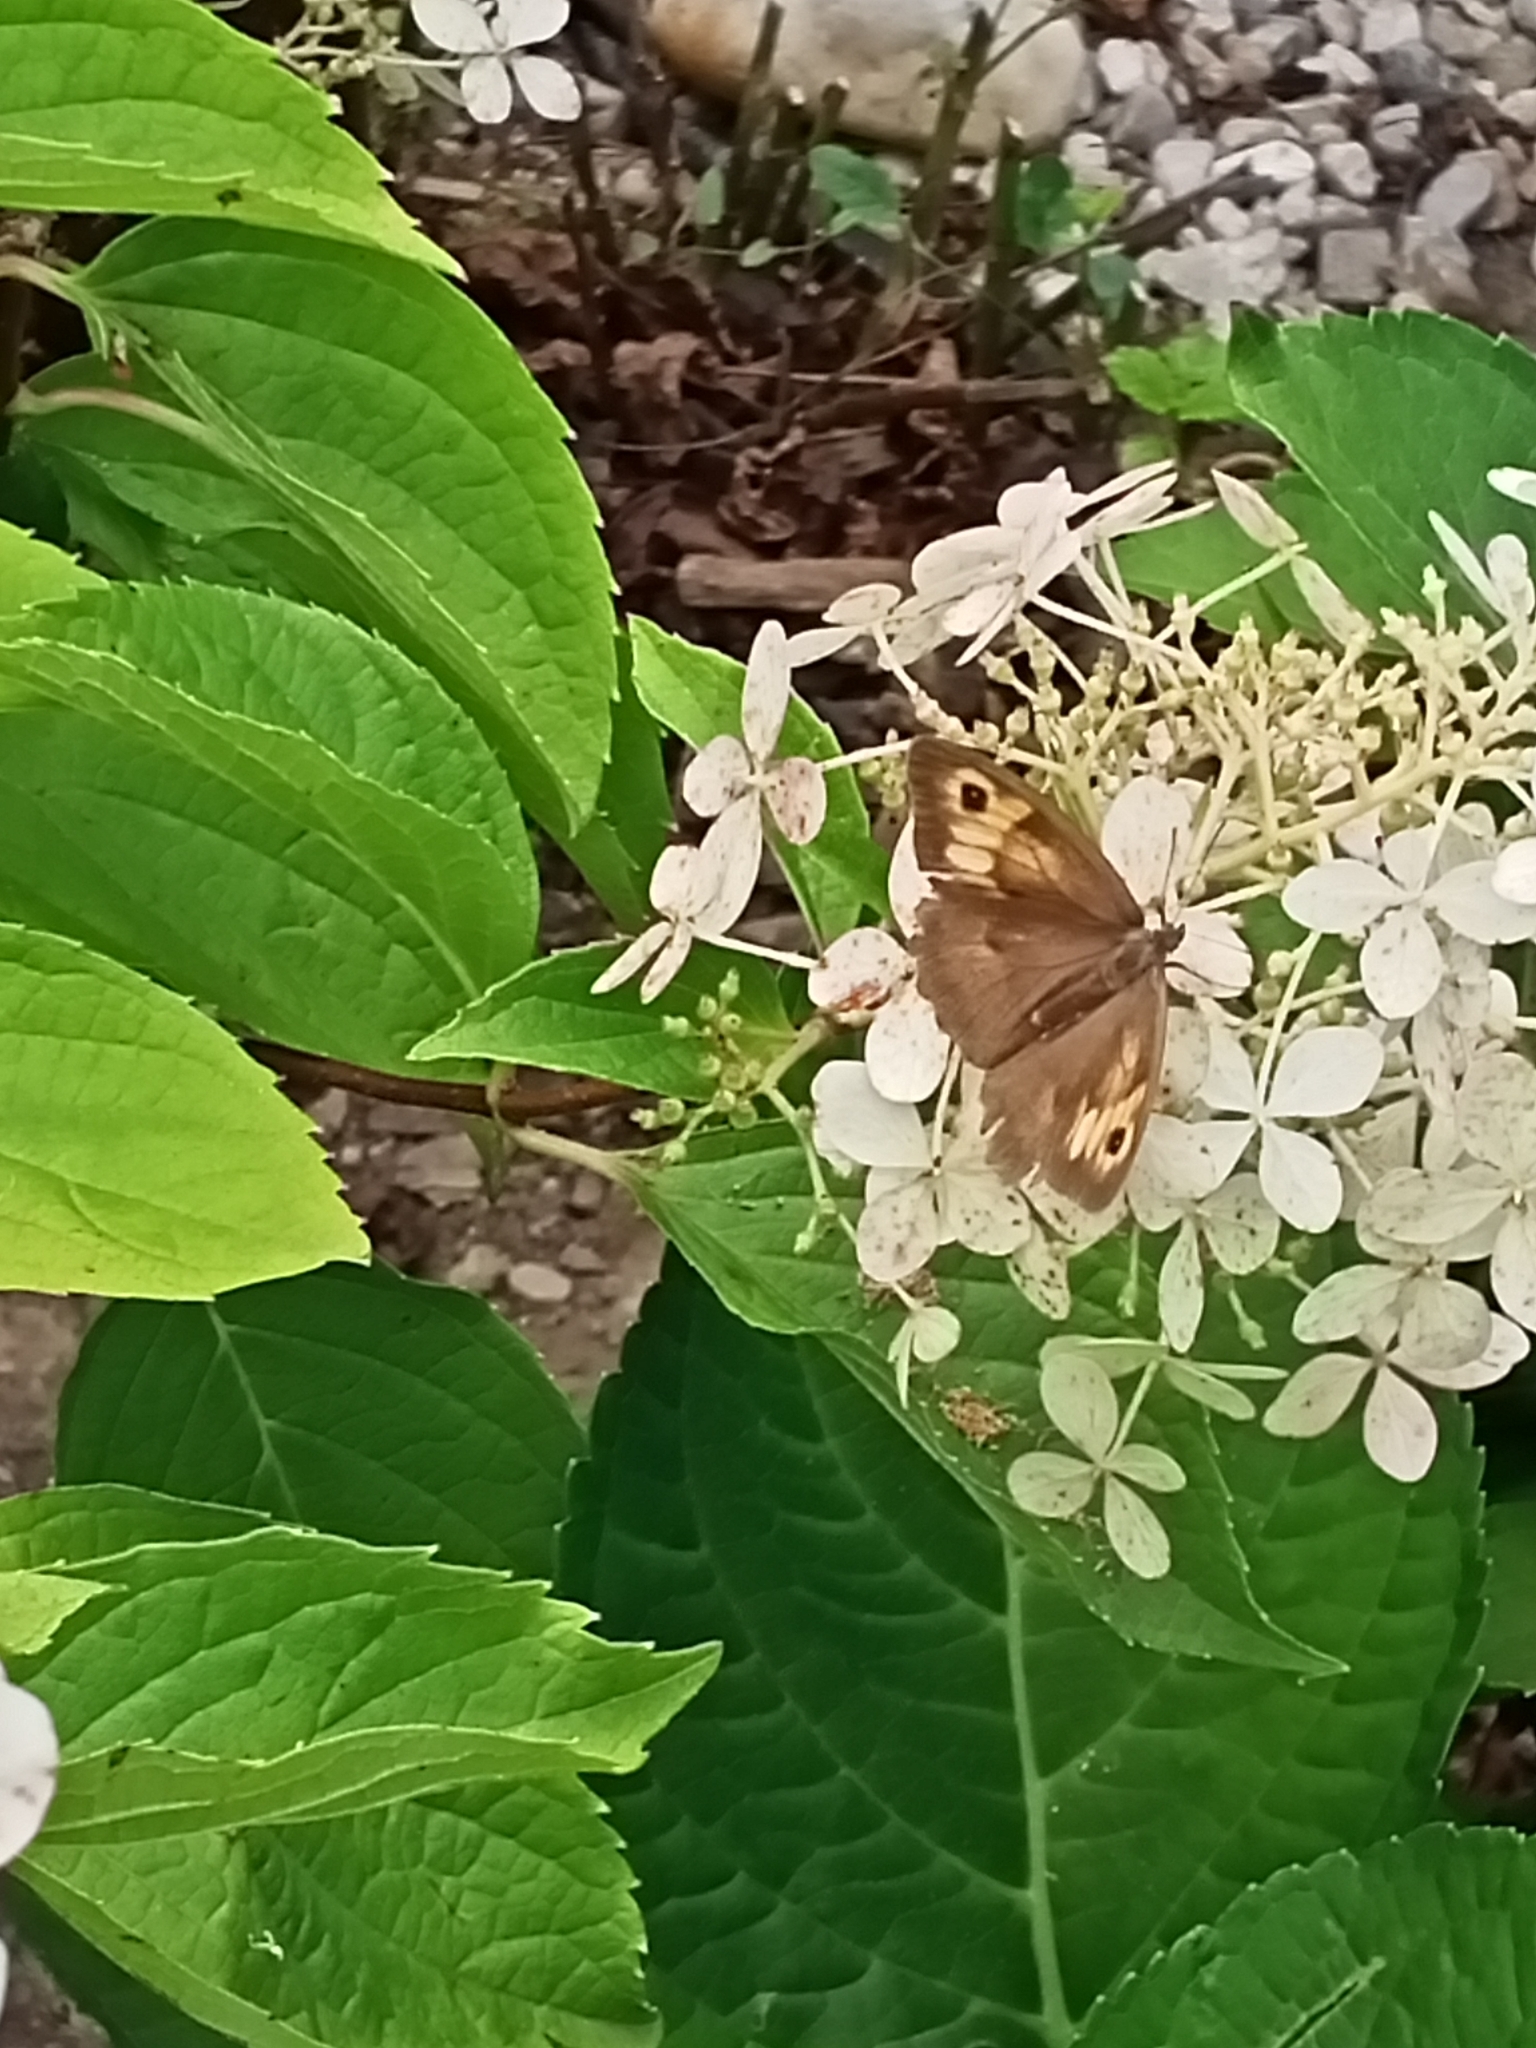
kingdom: Animalia
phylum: Arthropoda
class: Insecta
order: Lepidoptera
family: Nymphalidae
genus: Maniola
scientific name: Maniola jurtina
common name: Meadow brown
